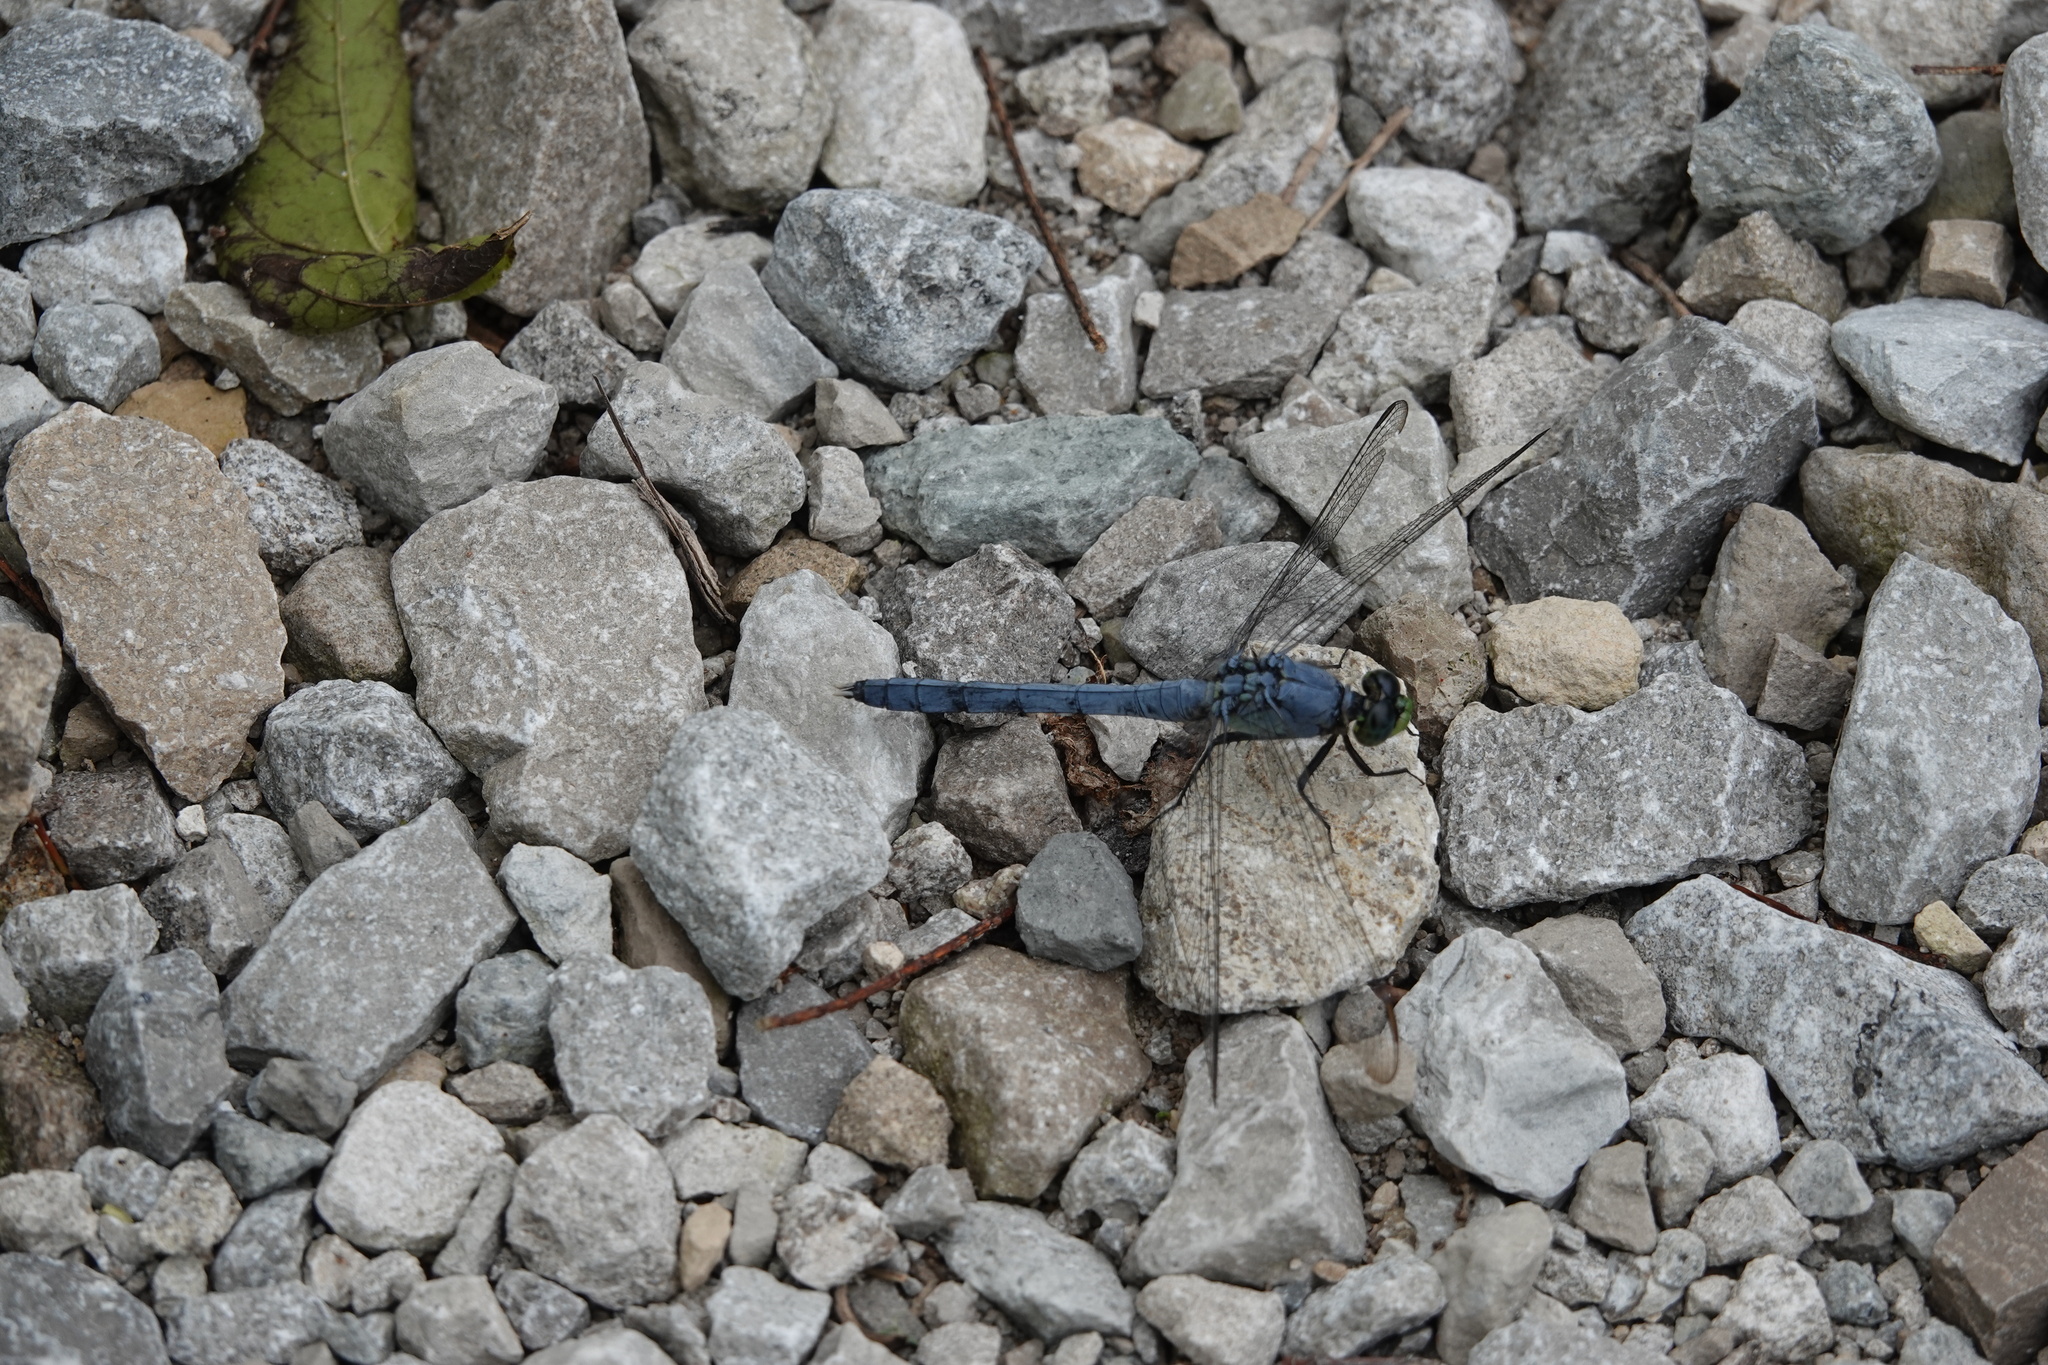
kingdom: Animalia
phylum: Arthropoda
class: Insecta
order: Odonata
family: Libellulidae
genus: Erythemis
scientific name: Erythemis simplicicollis
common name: Eastern pondhawk
